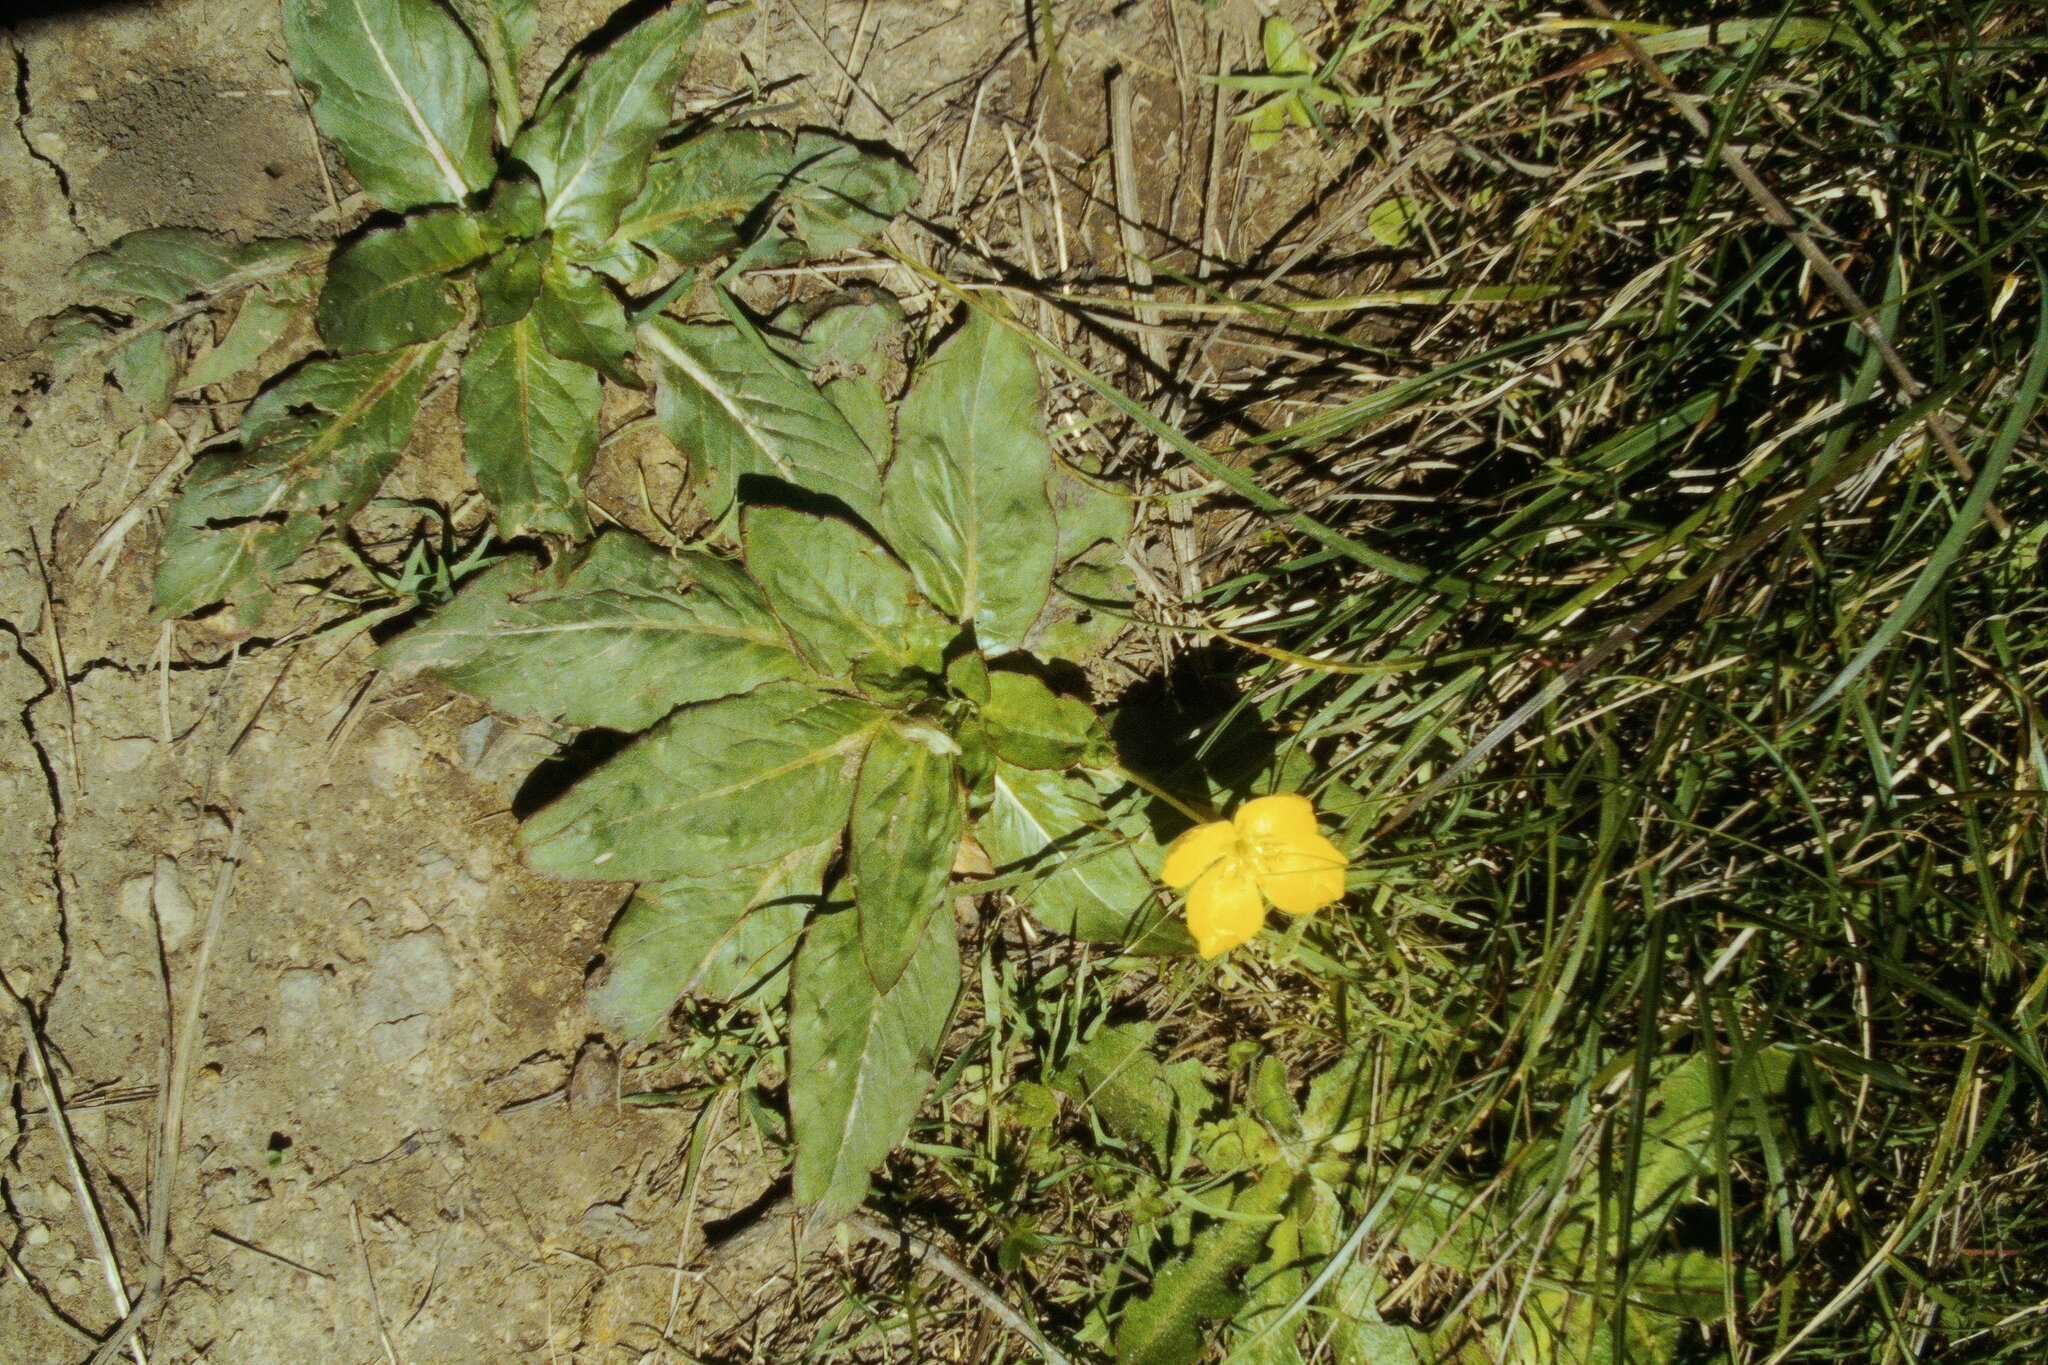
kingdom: Plantae
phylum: Tracheophyta
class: Magnoliopsida
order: Myrtales
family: Onagraceae
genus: Taraxia
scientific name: Taraxia ovata
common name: Goldeneggs
